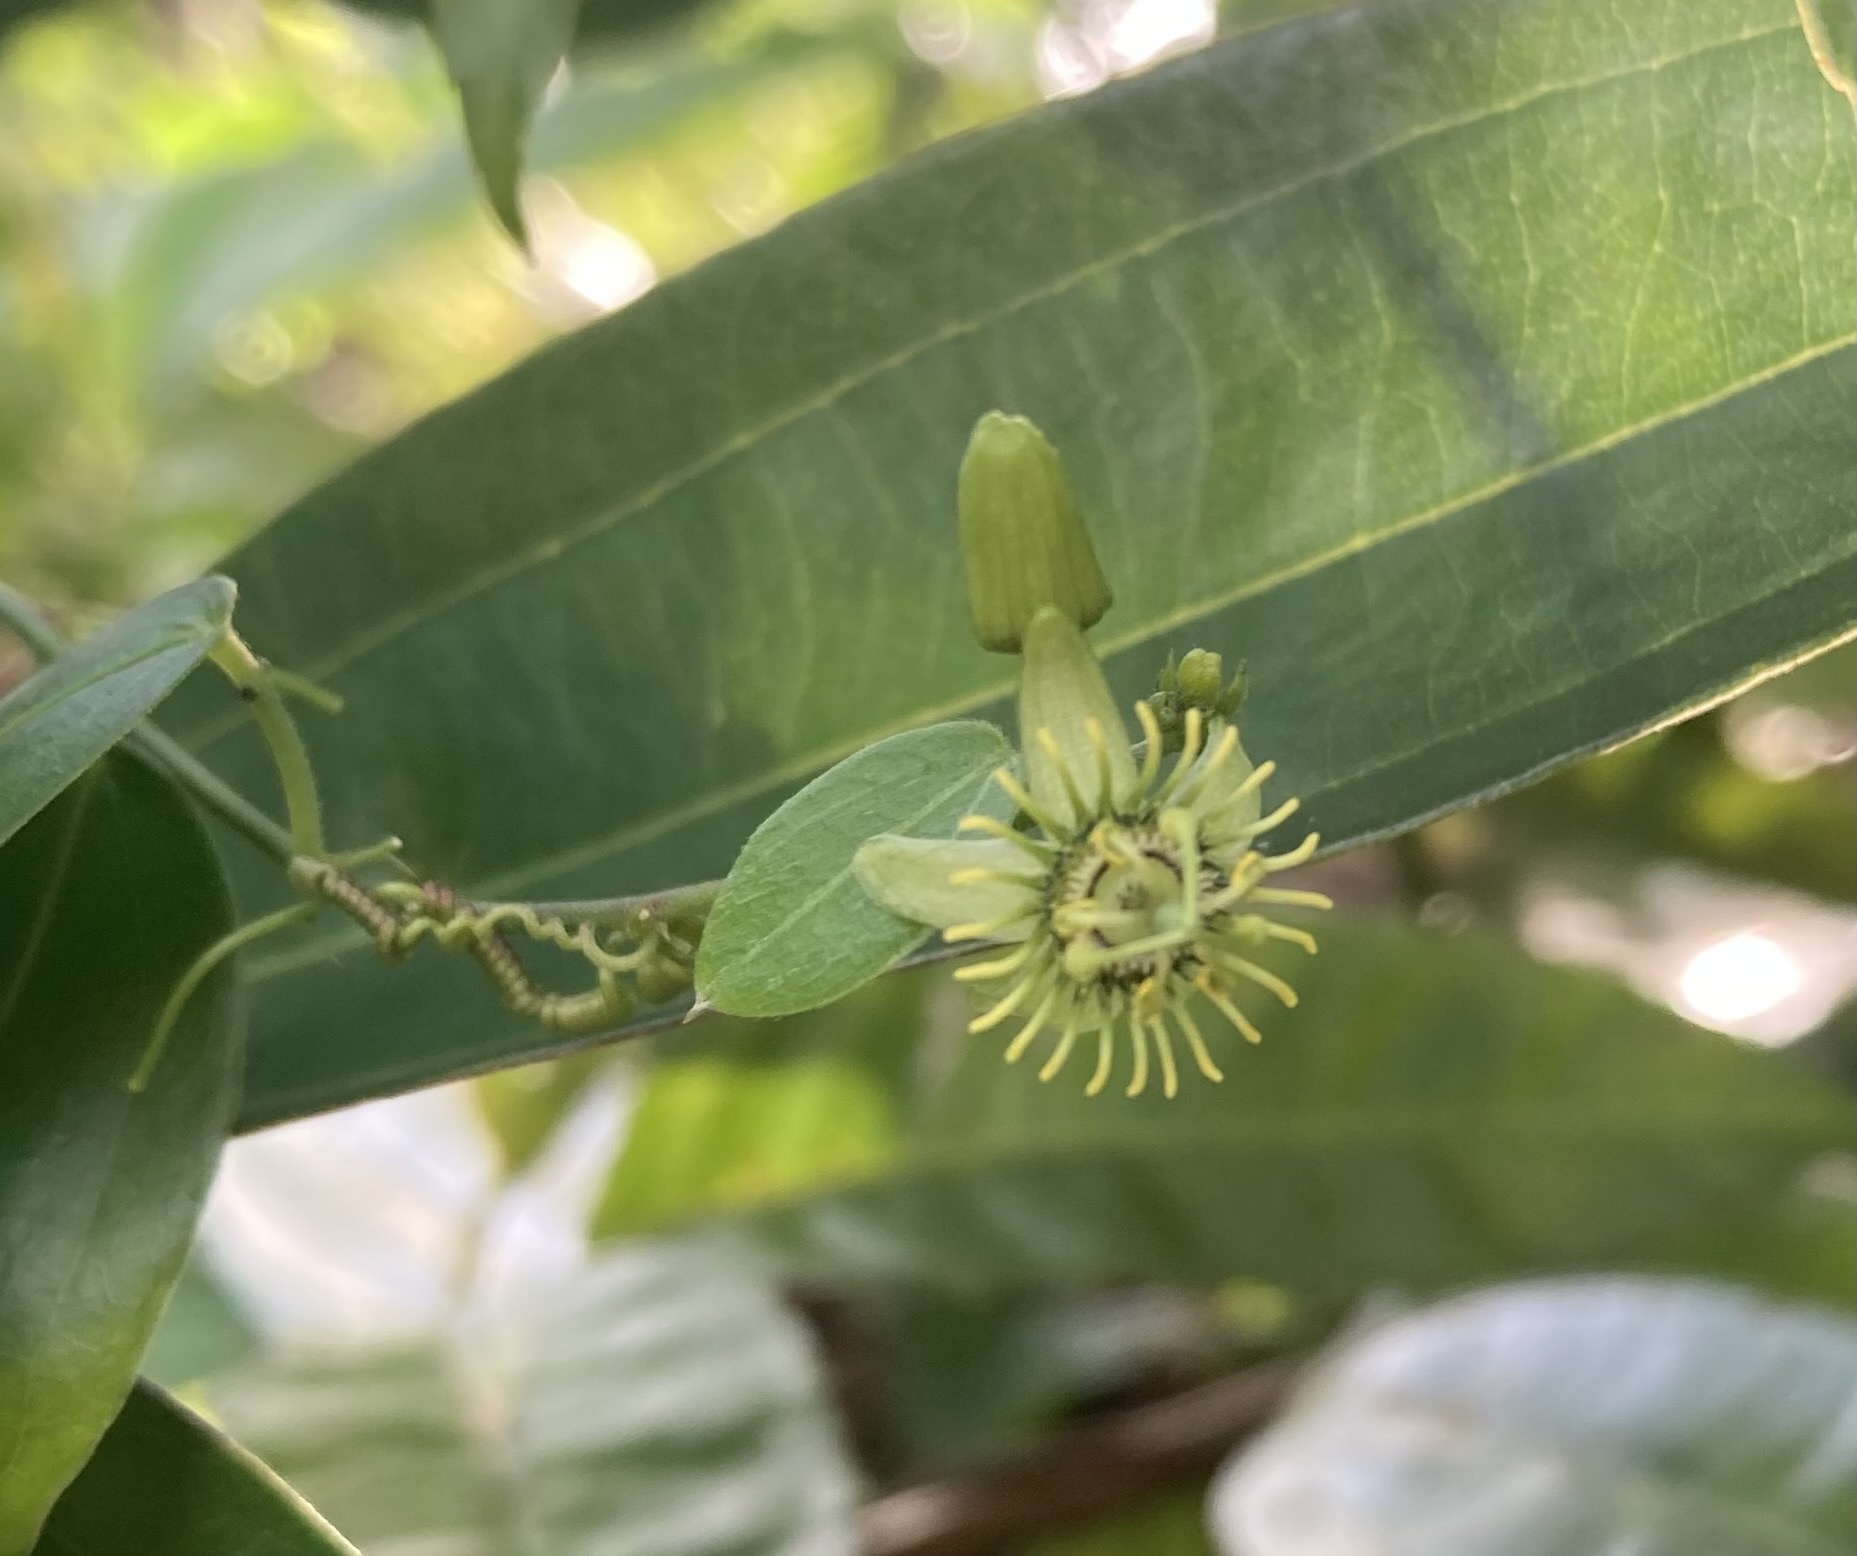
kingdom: Plantae
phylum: Tracheophyta
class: Magnoliopsida
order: Malpighiales
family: Passifloraceae
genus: Passiflora
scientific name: Passiflora pallida
